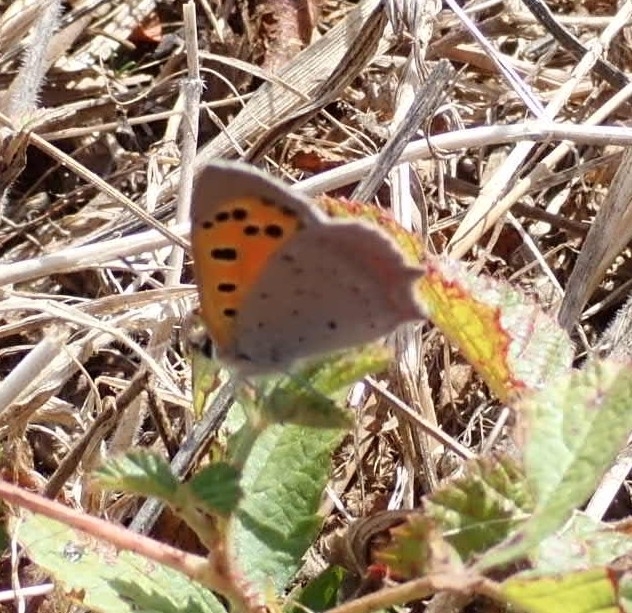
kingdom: Animalia
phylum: Arthropoda
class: Insecta
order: Lepidoptera
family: Lycaenidae
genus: Lycaena
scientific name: Lycaena phlaeas
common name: Small copper
